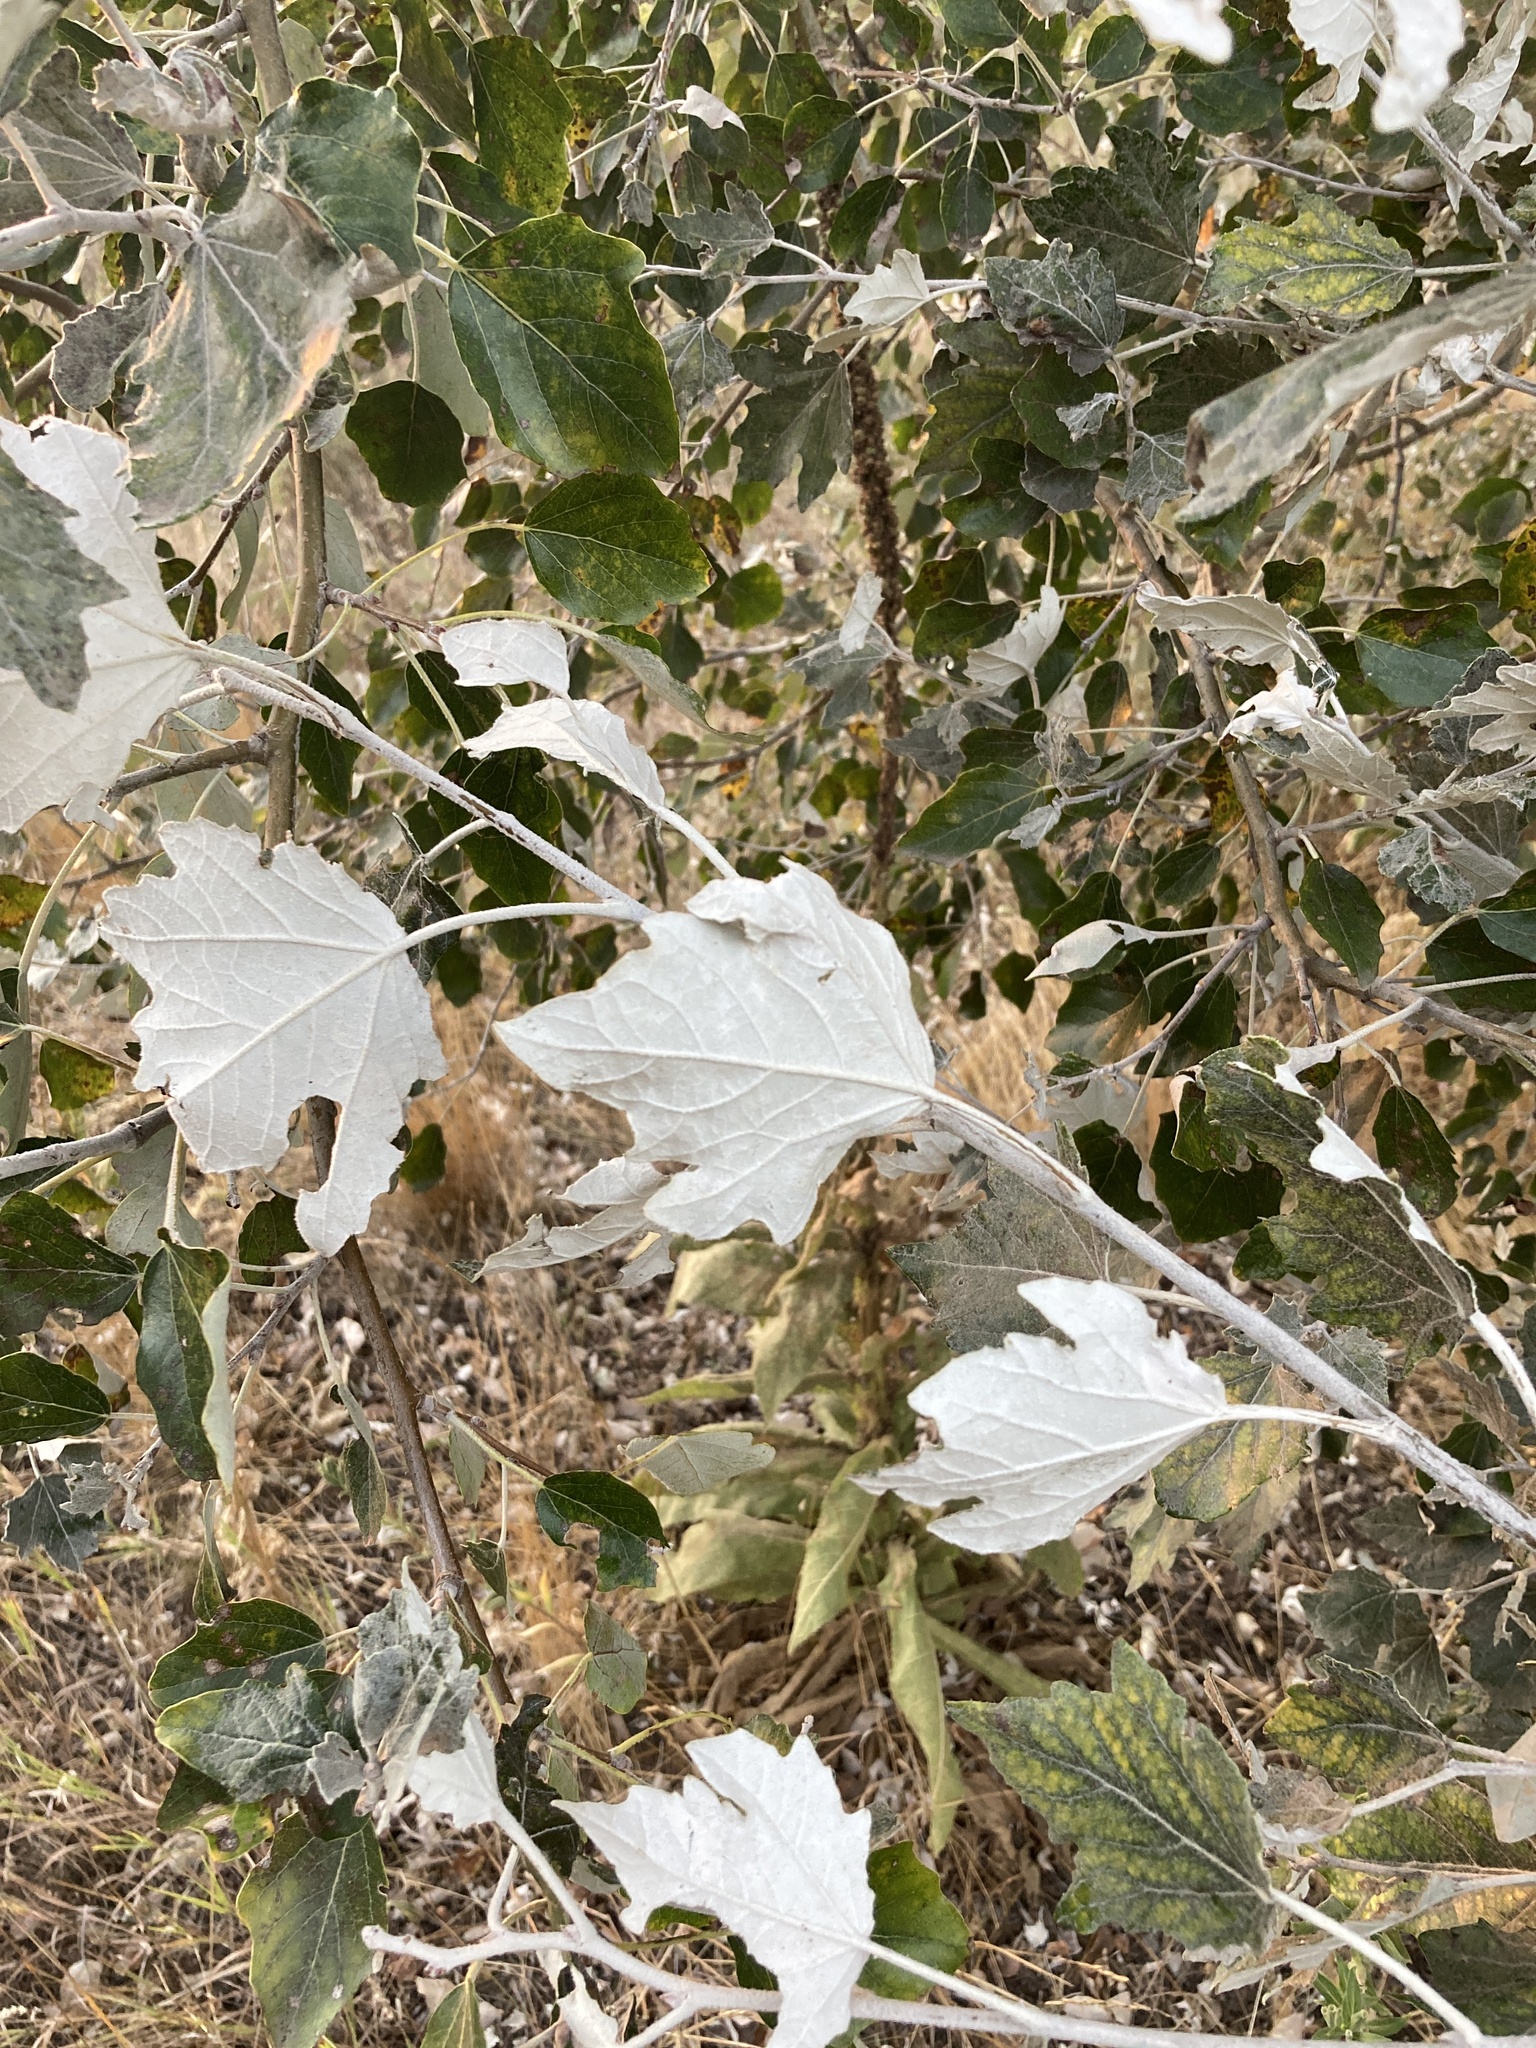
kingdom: Plantae
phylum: Tracheophyta
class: Magnoliopsida
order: Malpighiales
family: Salicaceae
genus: Populus
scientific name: Populus alba
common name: White poplar
